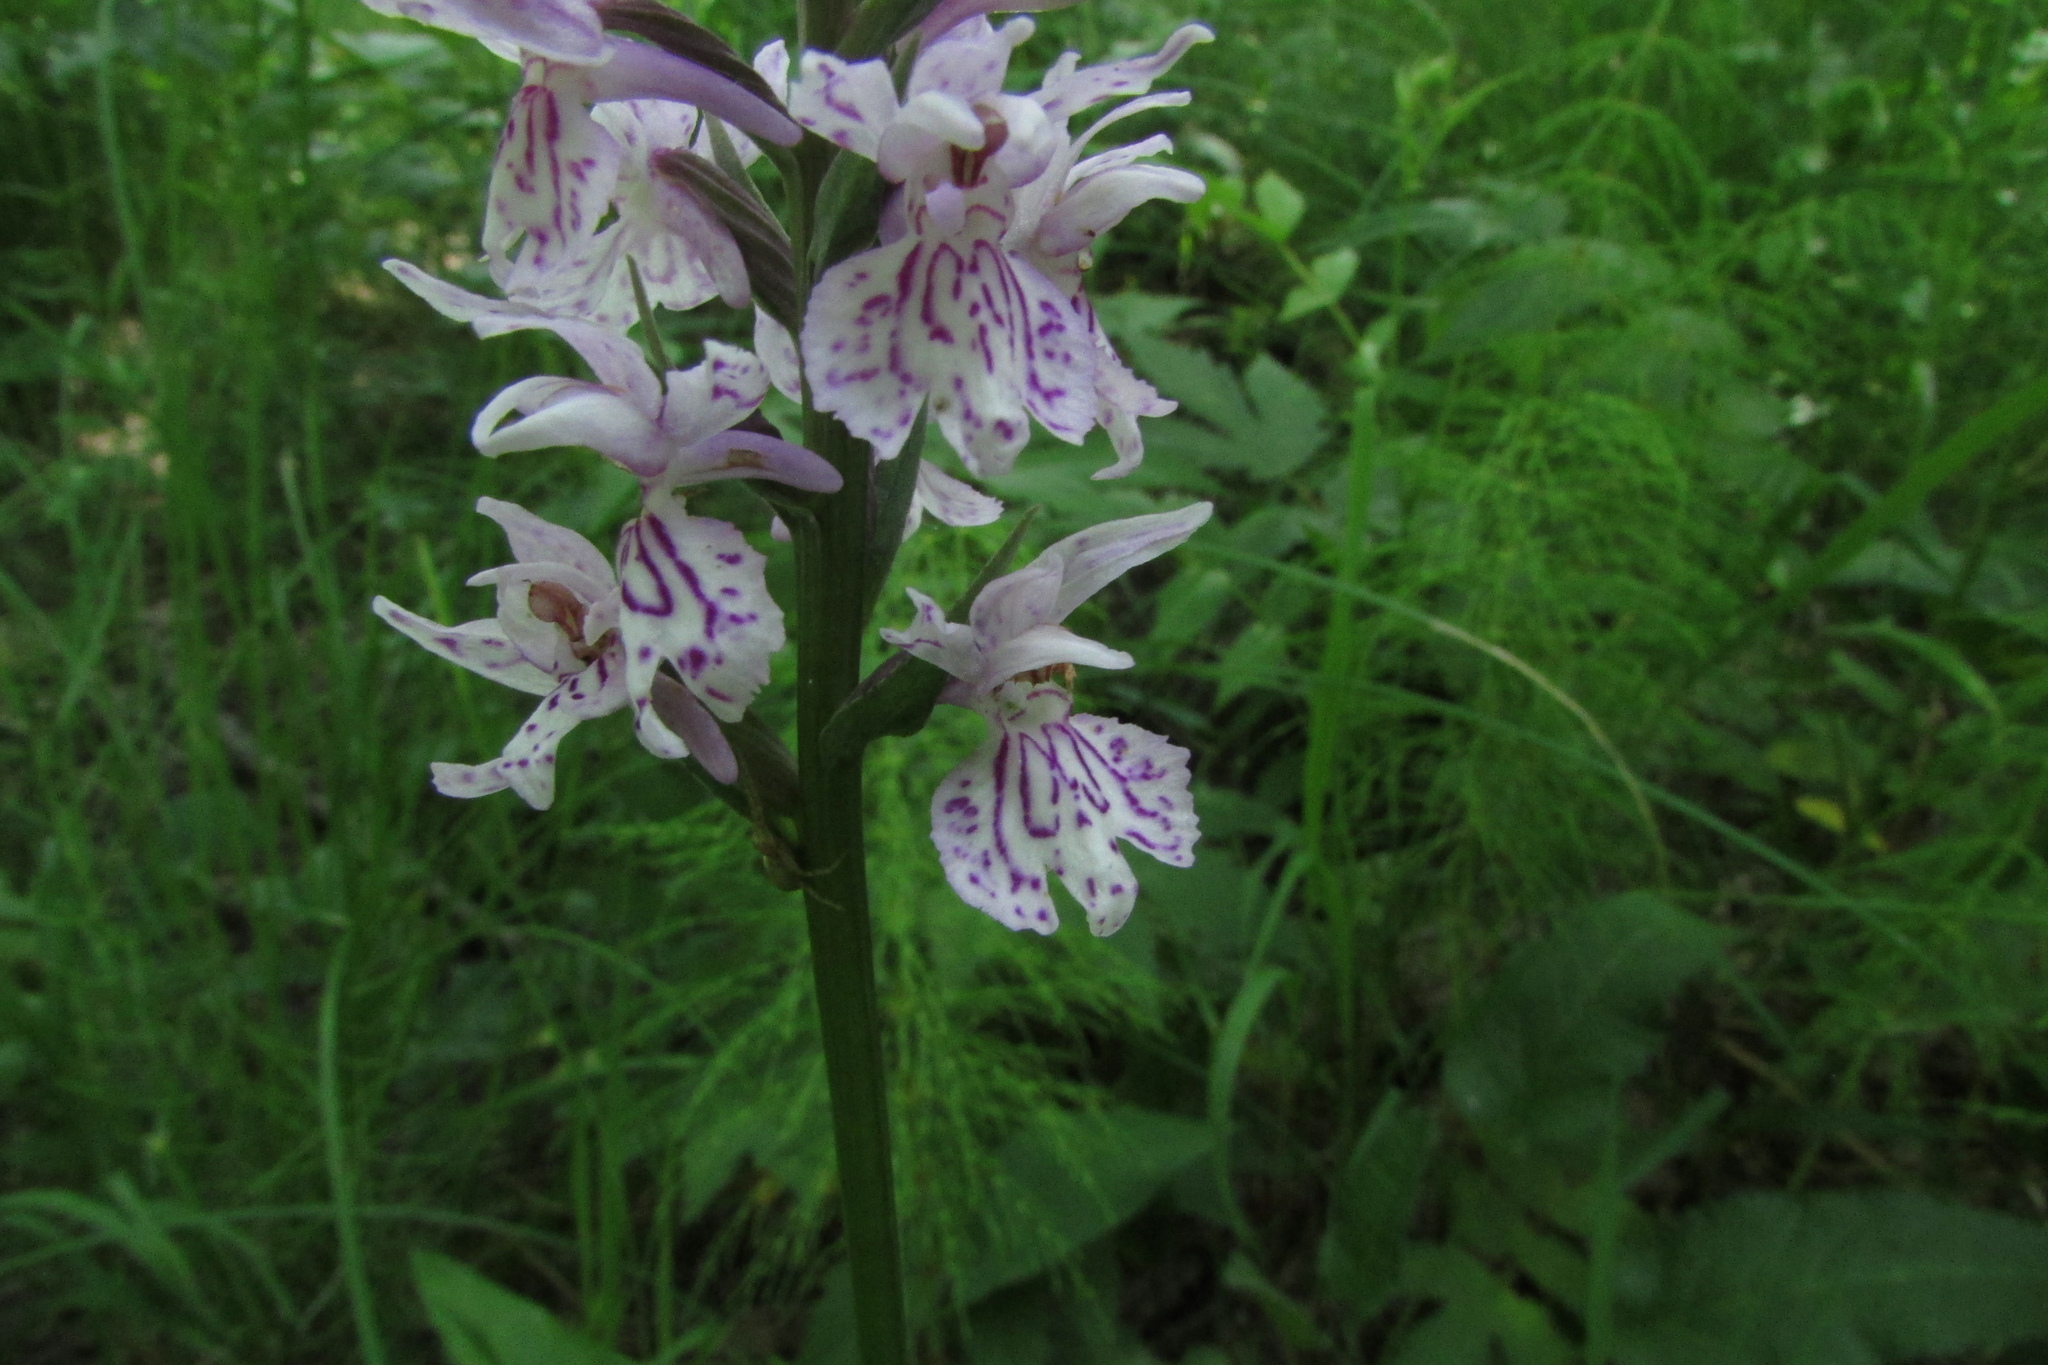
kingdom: Plantae
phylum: Tracheophyta
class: Liliopsida
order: Asparagales
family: Orchidaceae
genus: Dactylorhiza
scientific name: Dactylorhiza maculata
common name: Heath spotted-orchid
